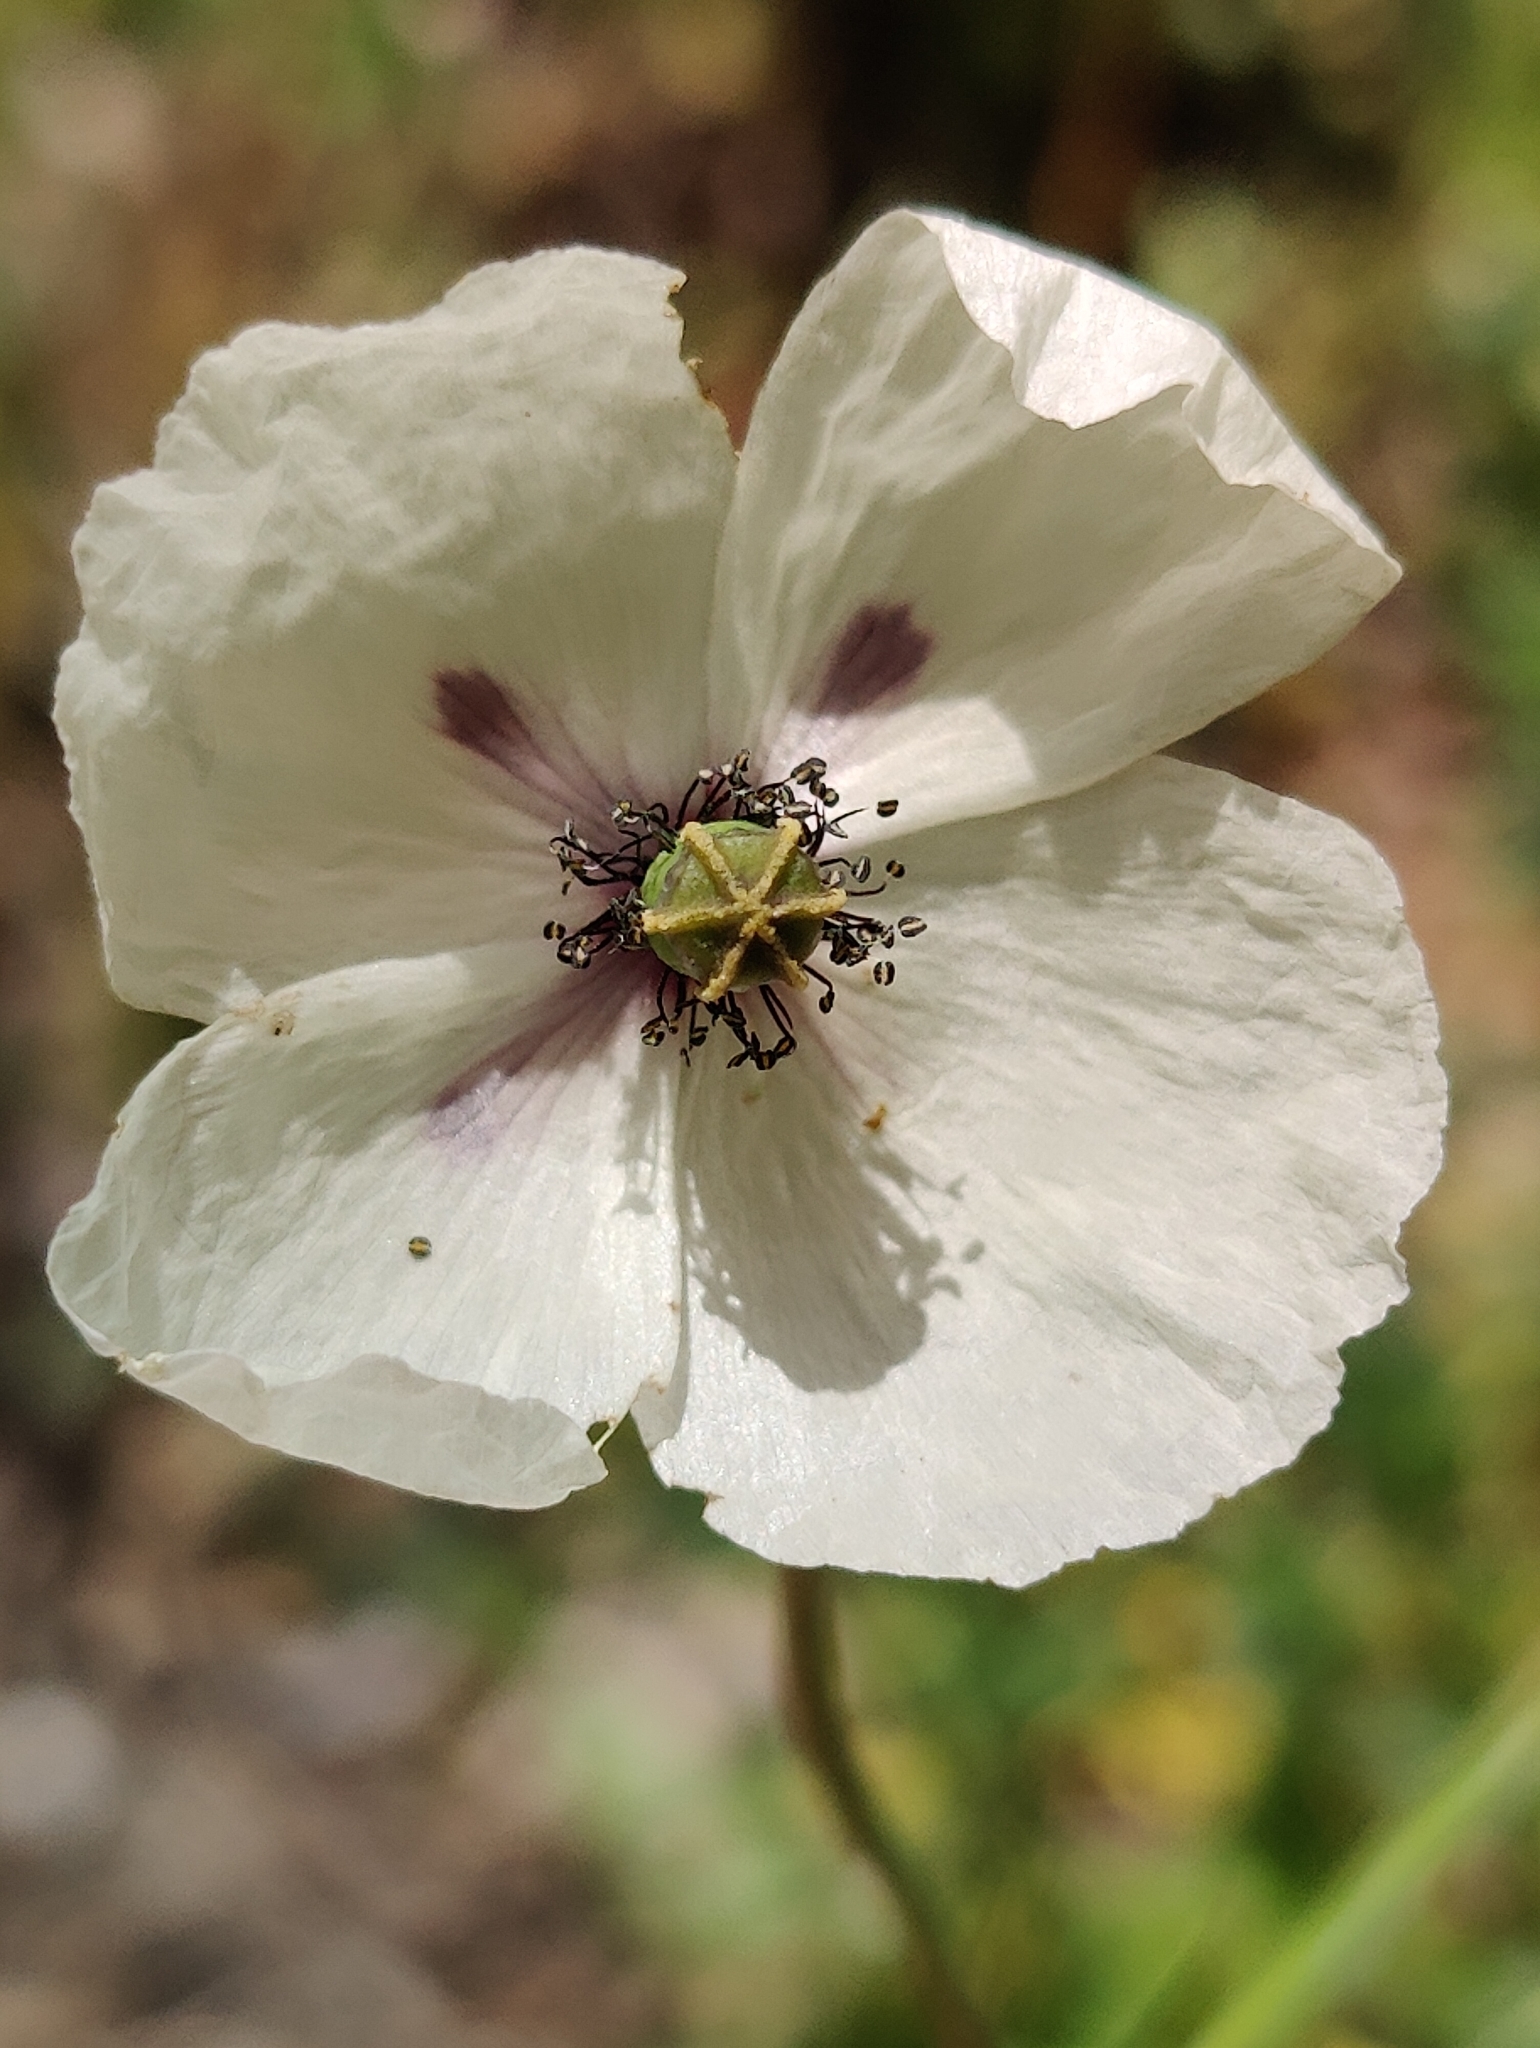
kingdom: Plantae
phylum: Tracheophyta
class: Magnoliopsida
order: Ranunculales
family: Papaveraceae
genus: Papaver
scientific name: Papaver dubium
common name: Long-headed poppy
